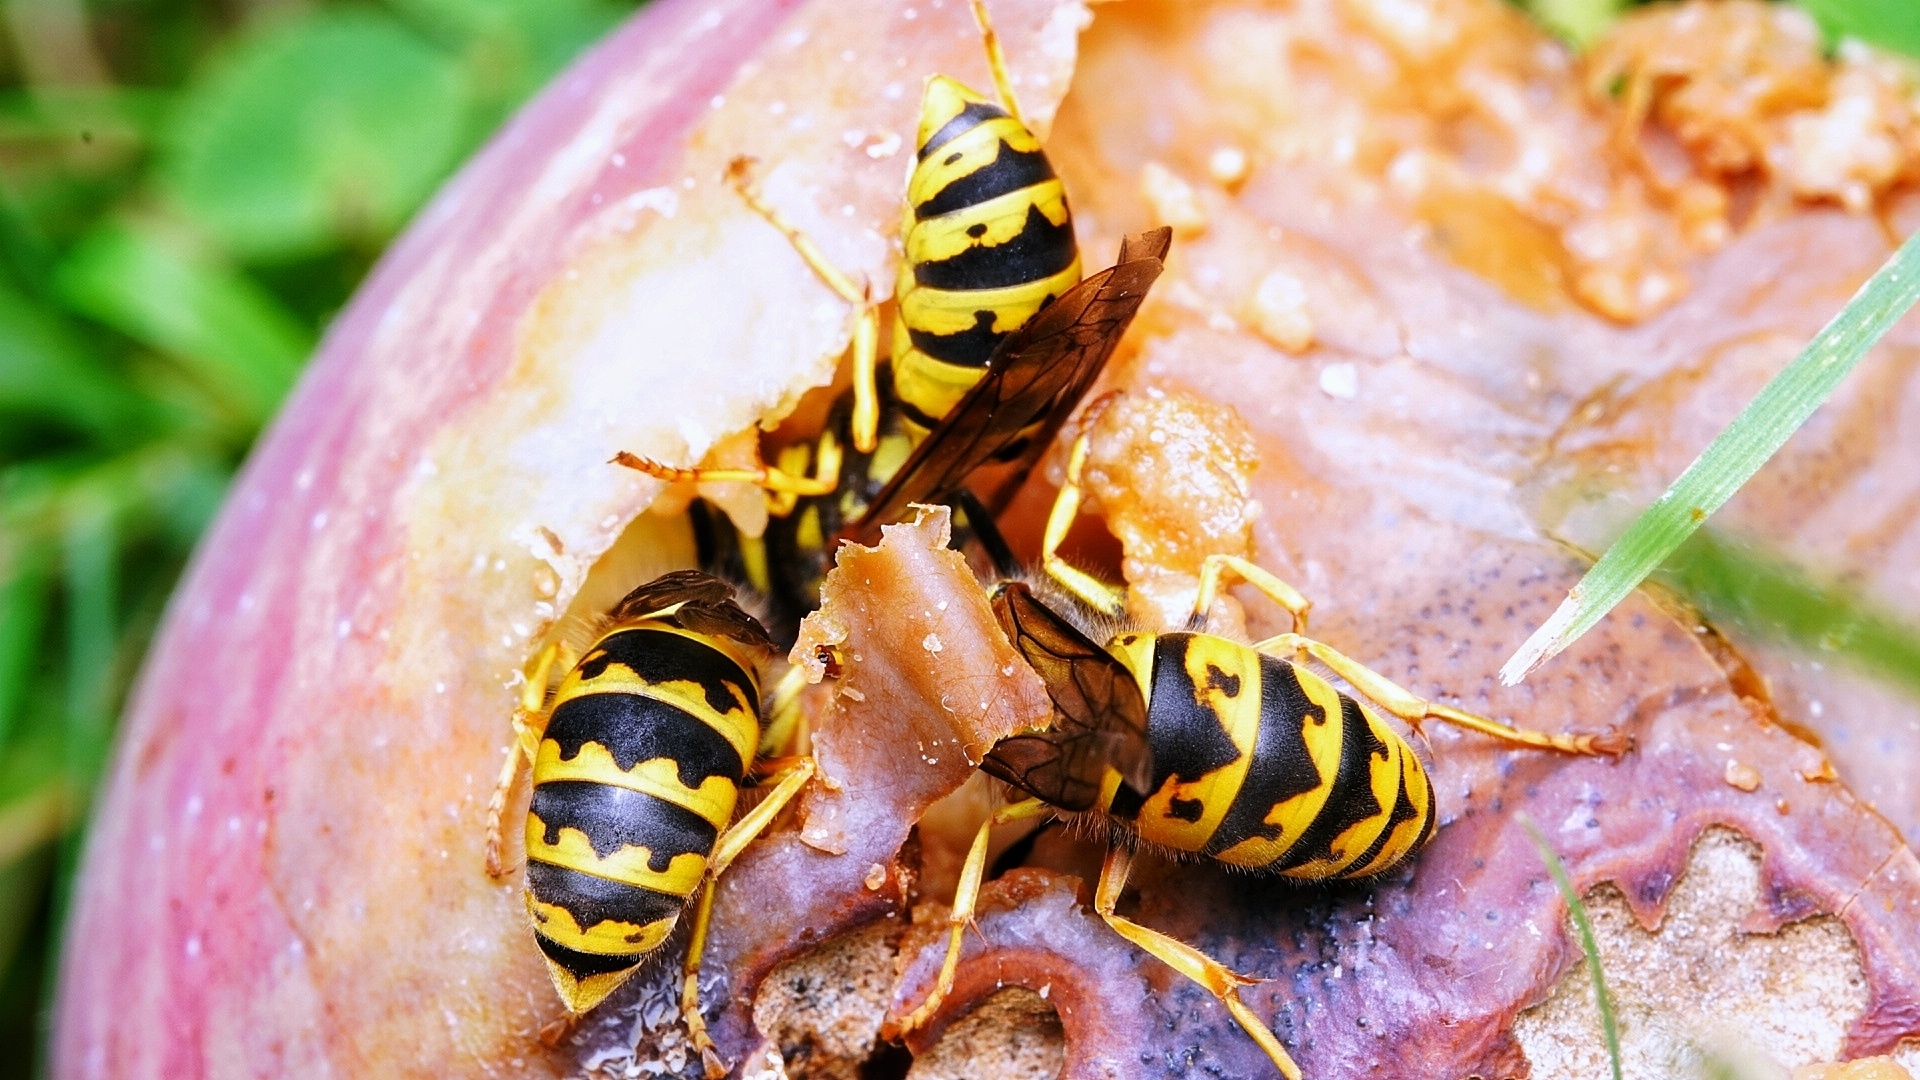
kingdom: Animalia
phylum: Arthropoda
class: Insecta
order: Hymenoptera
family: Vespidae
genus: Vespula
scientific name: Vespula germanica
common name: German wasp
